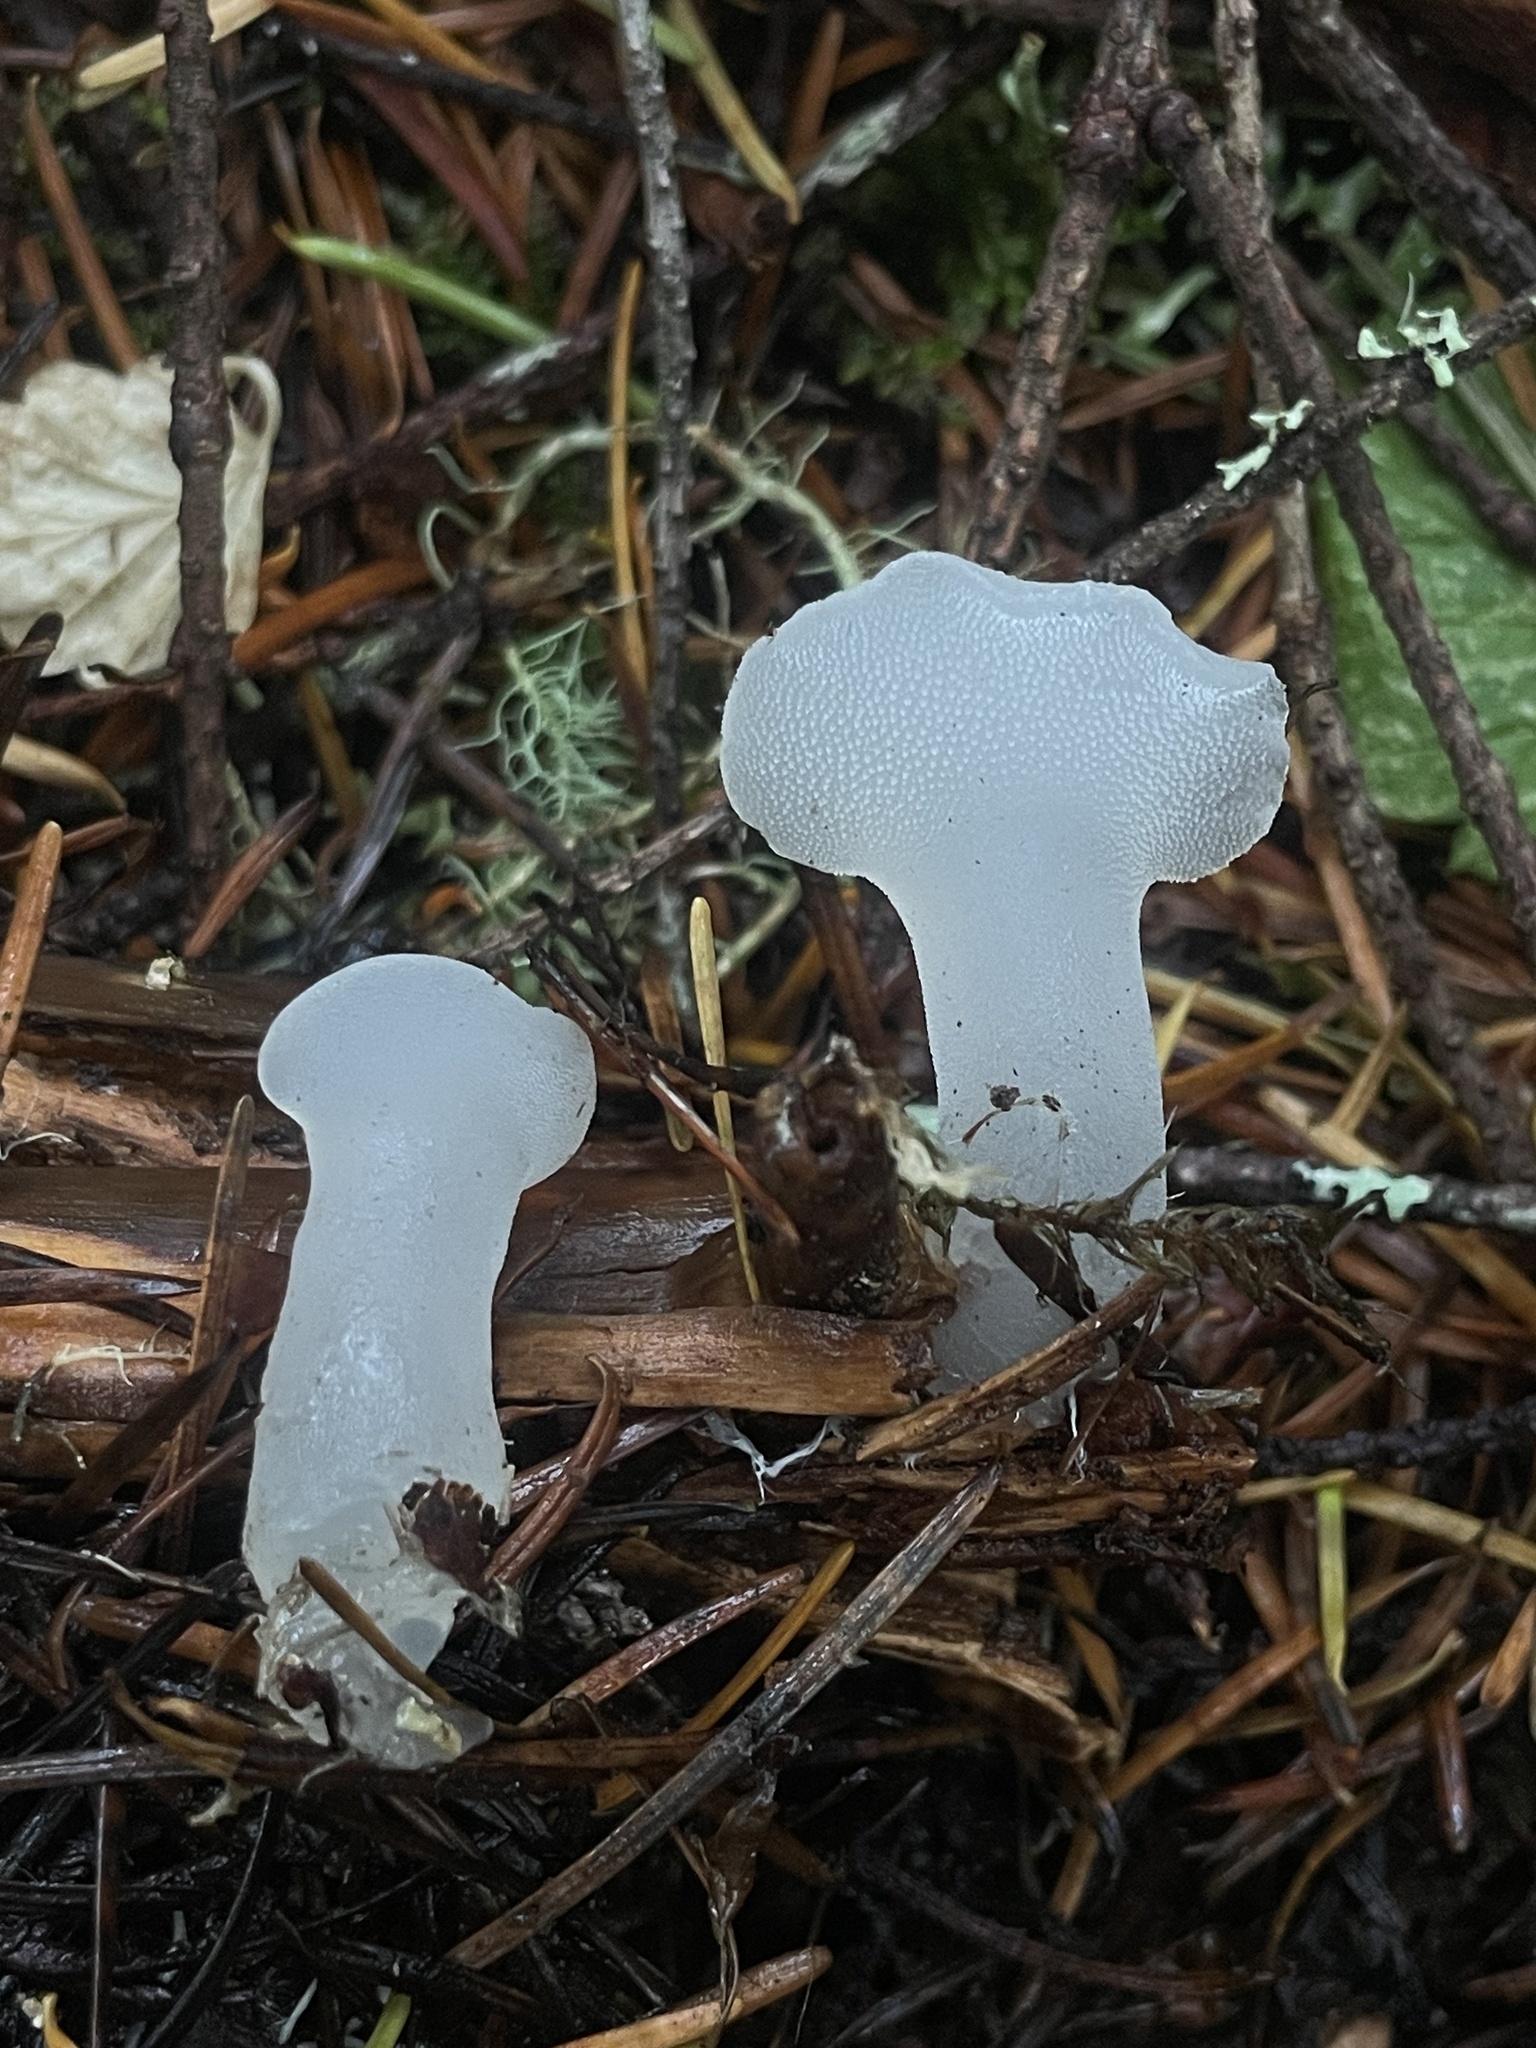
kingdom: Fungi
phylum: Basidiomycota
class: Agaricomycetes
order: Auriculariales
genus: Pseudohydnum
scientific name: Pseudohydnum gelatinosum
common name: Jelly tongue
